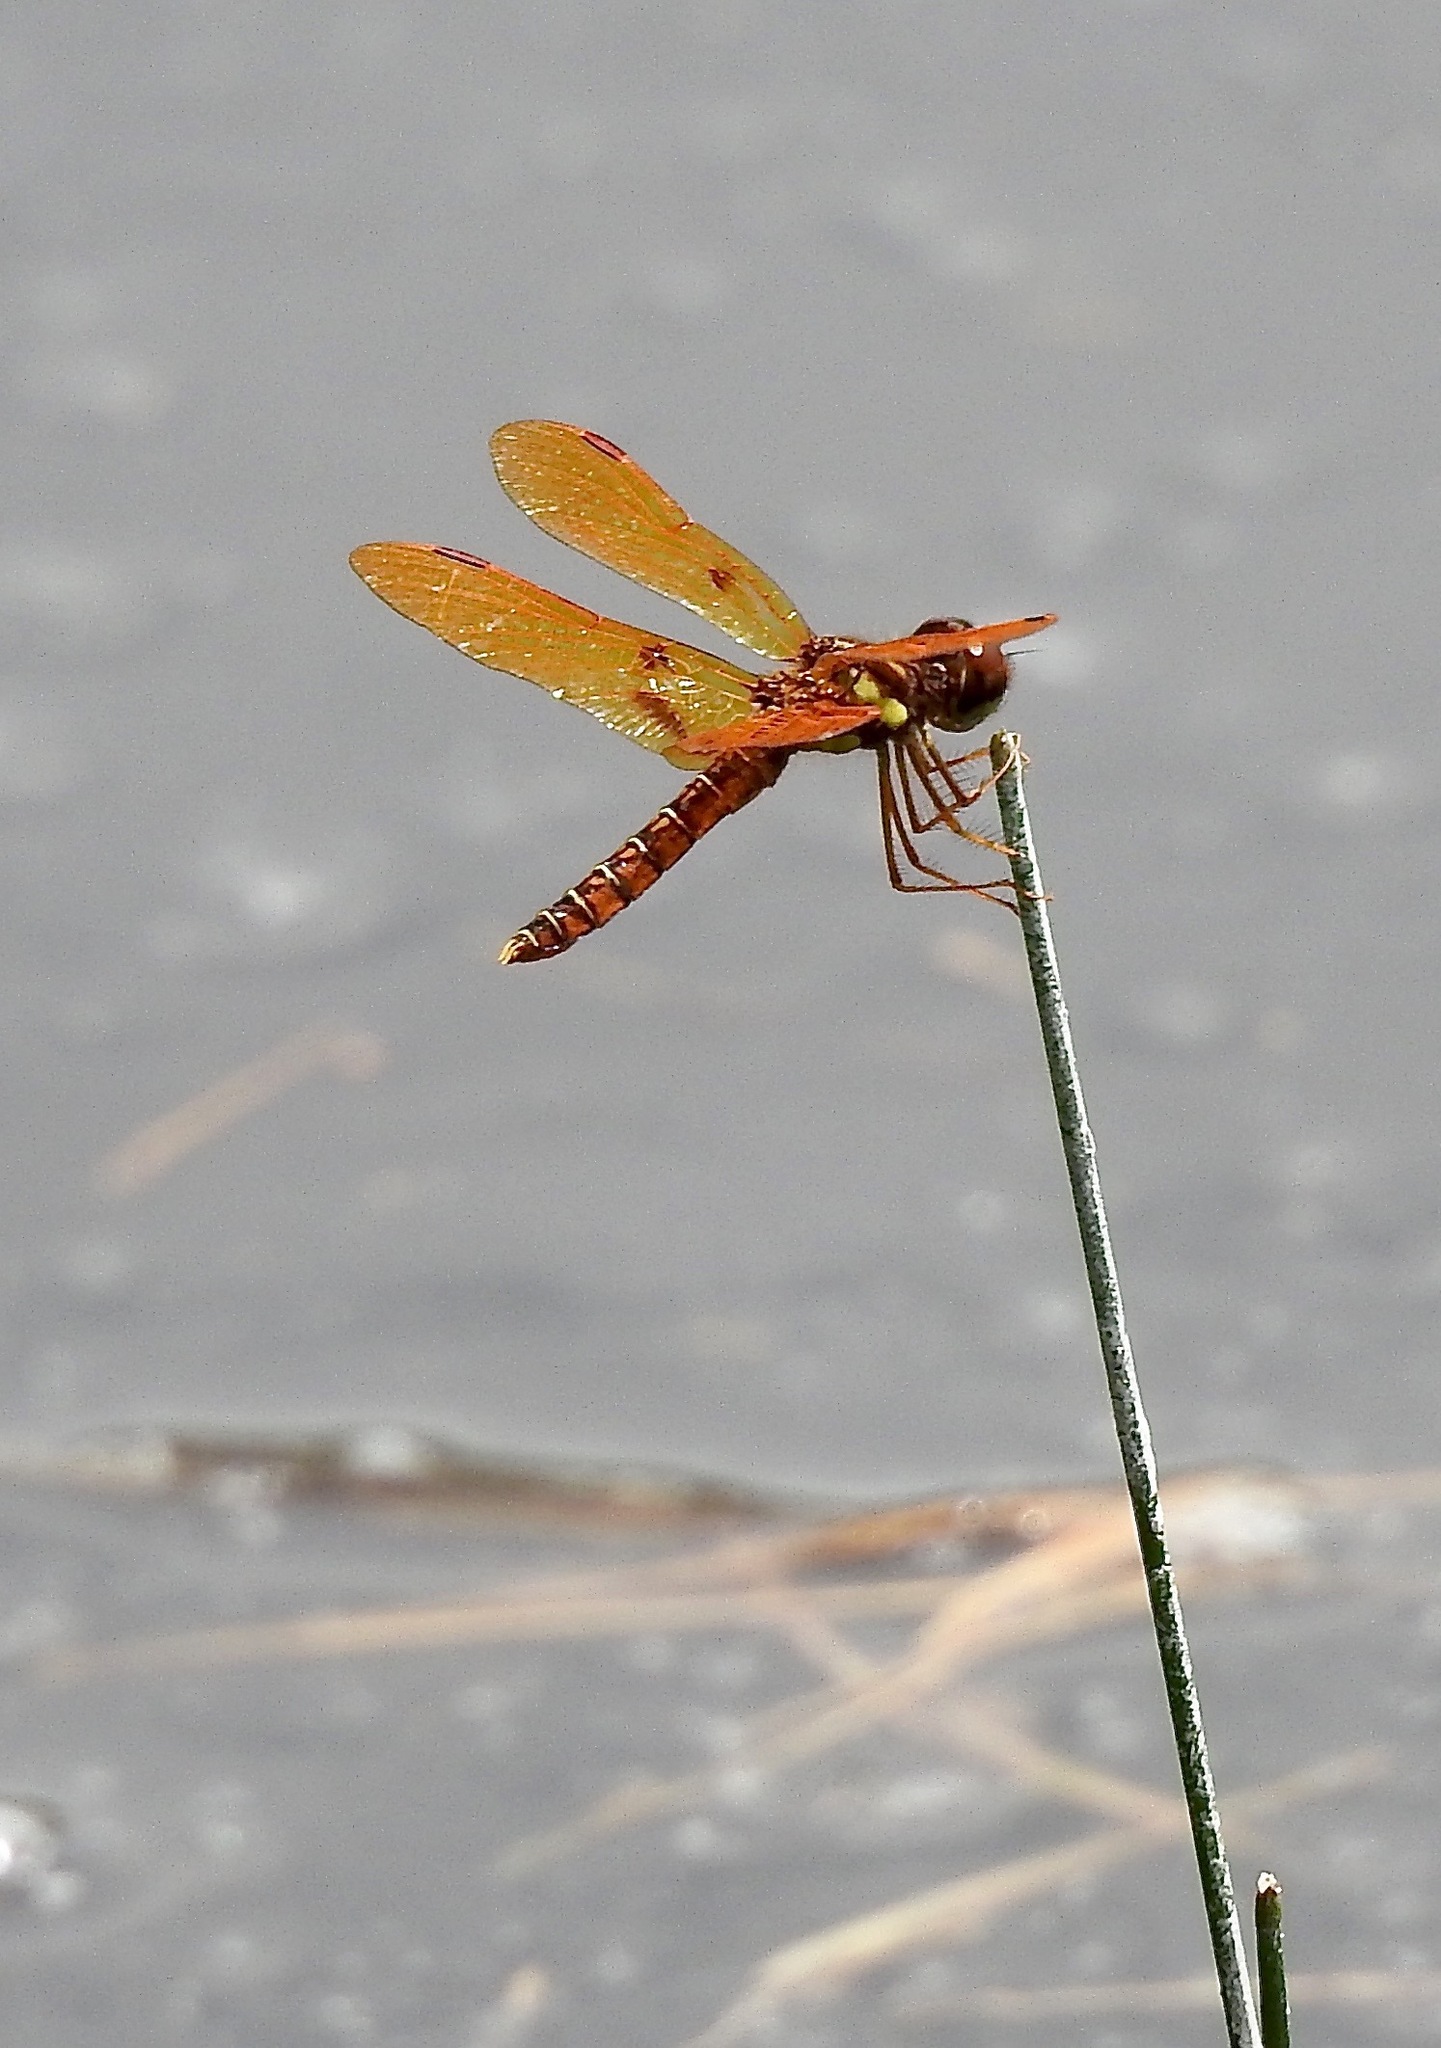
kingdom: Animalia
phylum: Arthropoda
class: Insecta
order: Odonata
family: Libellulidae
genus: Perithemis
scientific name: Perithemis tenera
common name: Eastern amberwing
